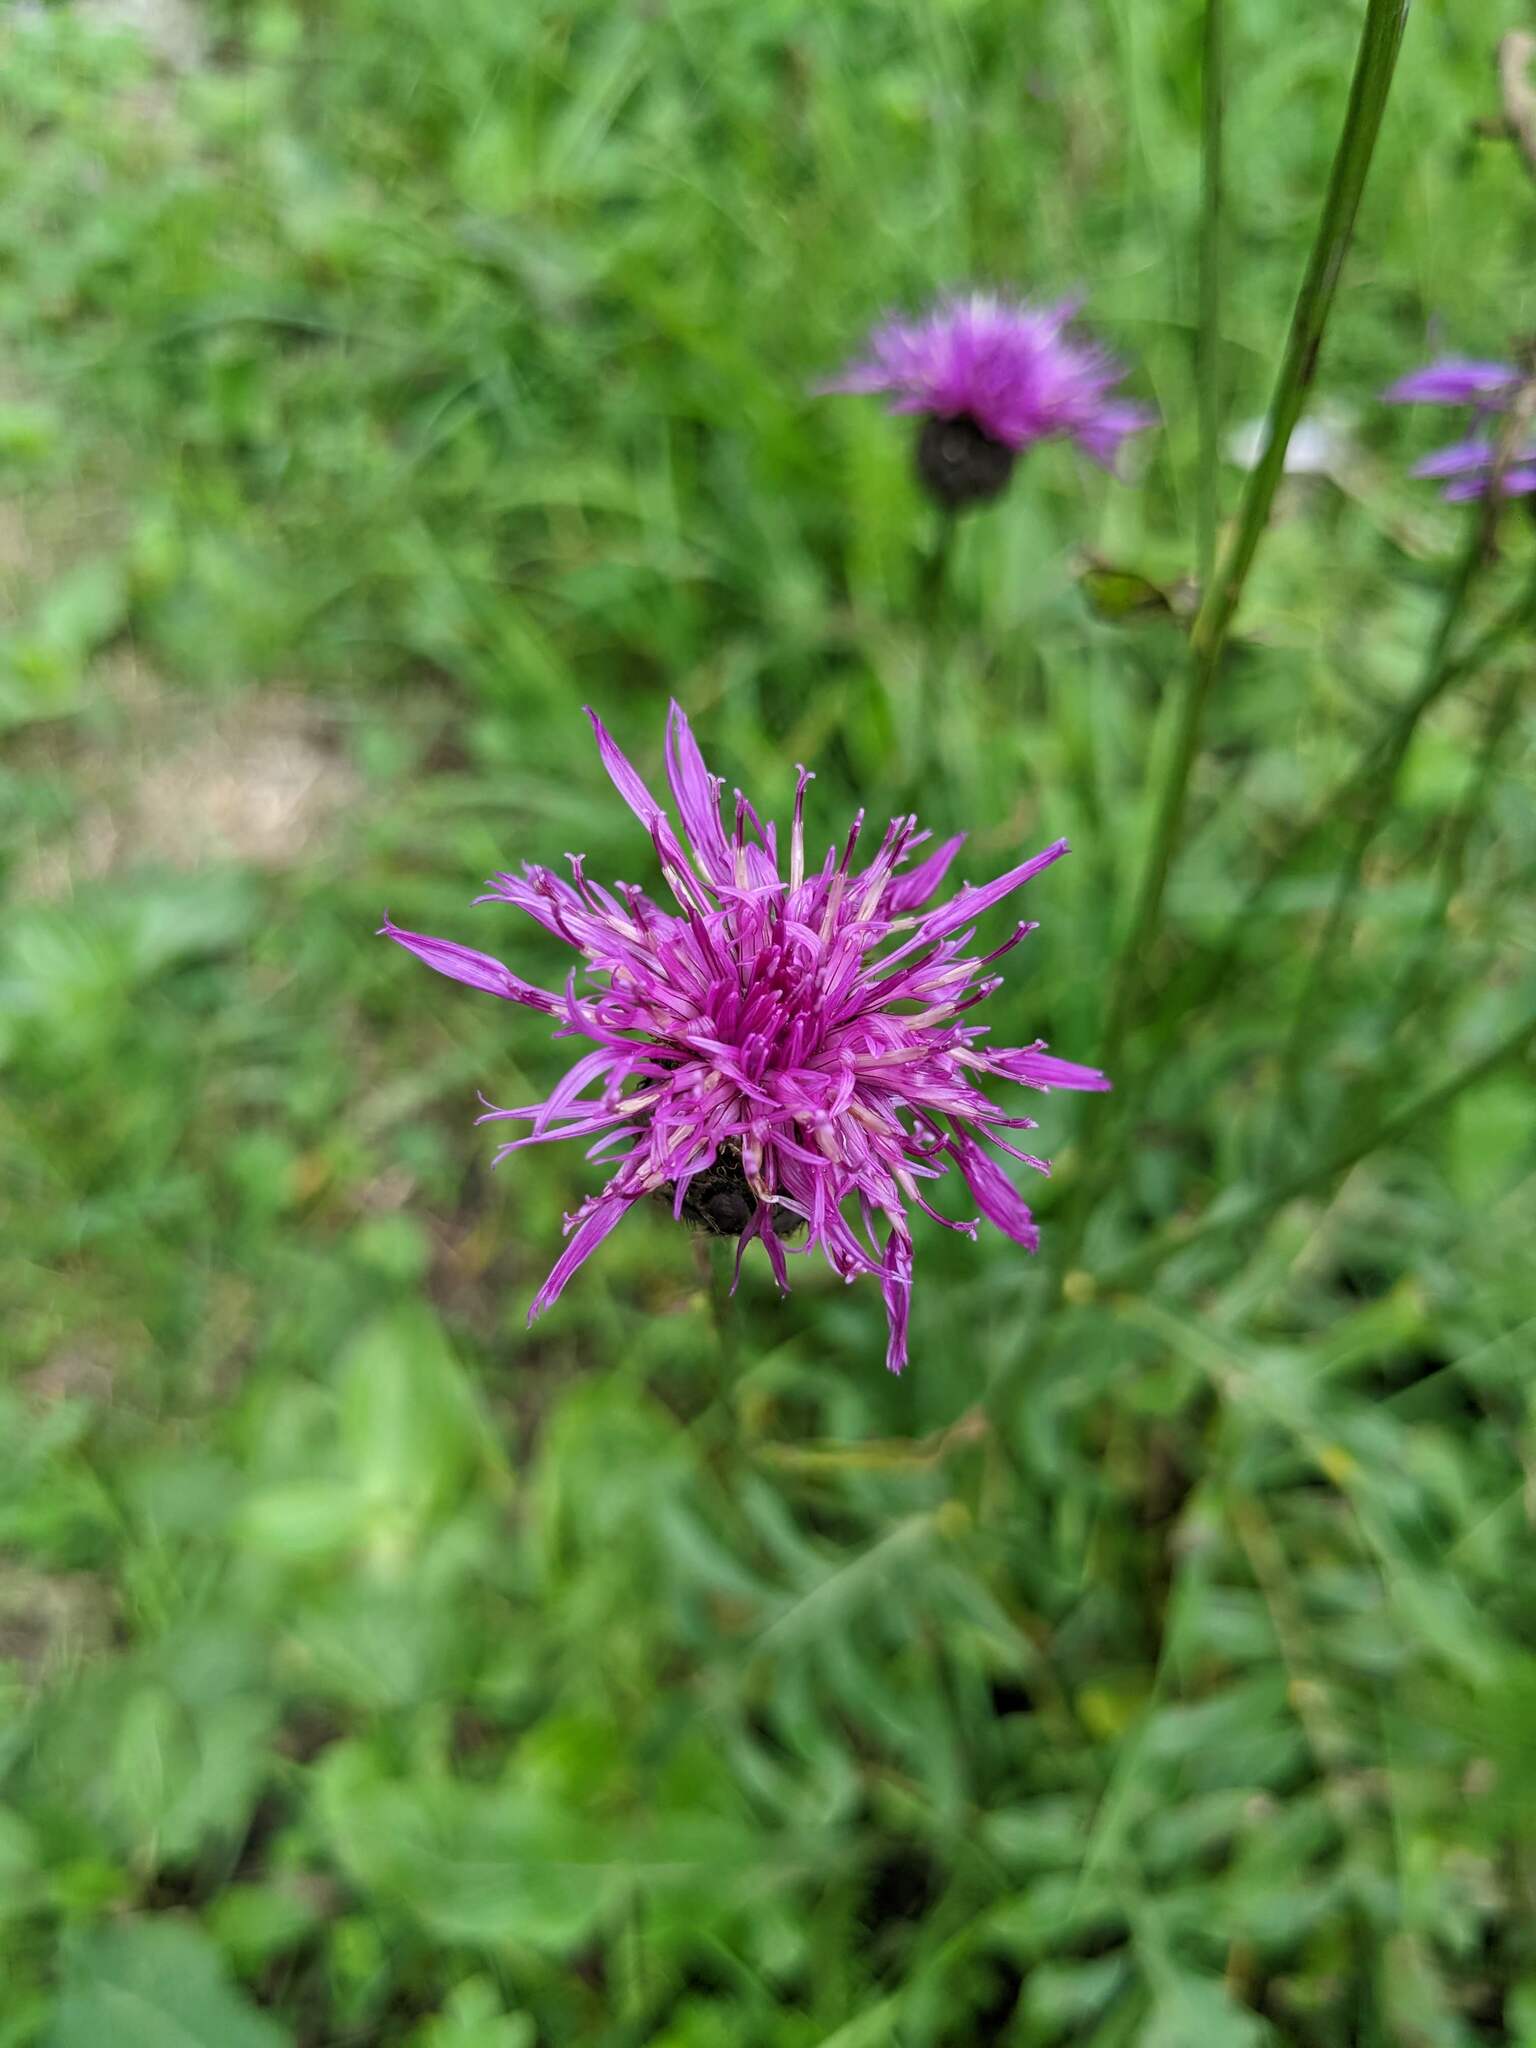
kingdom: Plantae
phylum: Tracheophyta
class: Magnoliopsida
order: Asterales
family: Asteraceae
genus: Centaurea
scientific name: Centaurea scabiosa
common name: Greater knapweed
